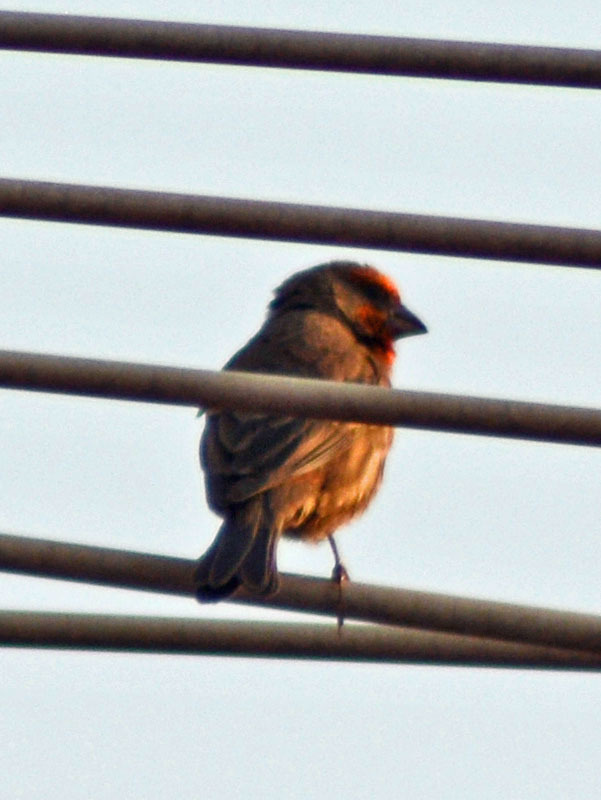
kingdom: Animalia
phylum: Chordata
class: Aves
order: Passeriformes
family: Fringillidae
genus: Haemorhous
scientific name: Haemorhous mexicanus
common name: House finch
